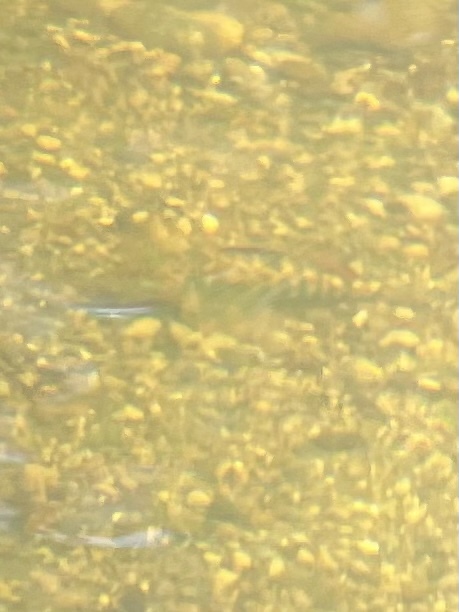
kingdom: Animalia
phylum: Chordata
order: Perciformes
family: Percidae
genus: Etheostoma
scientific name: Etheostoma caeruleum
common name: Rainbow darter
